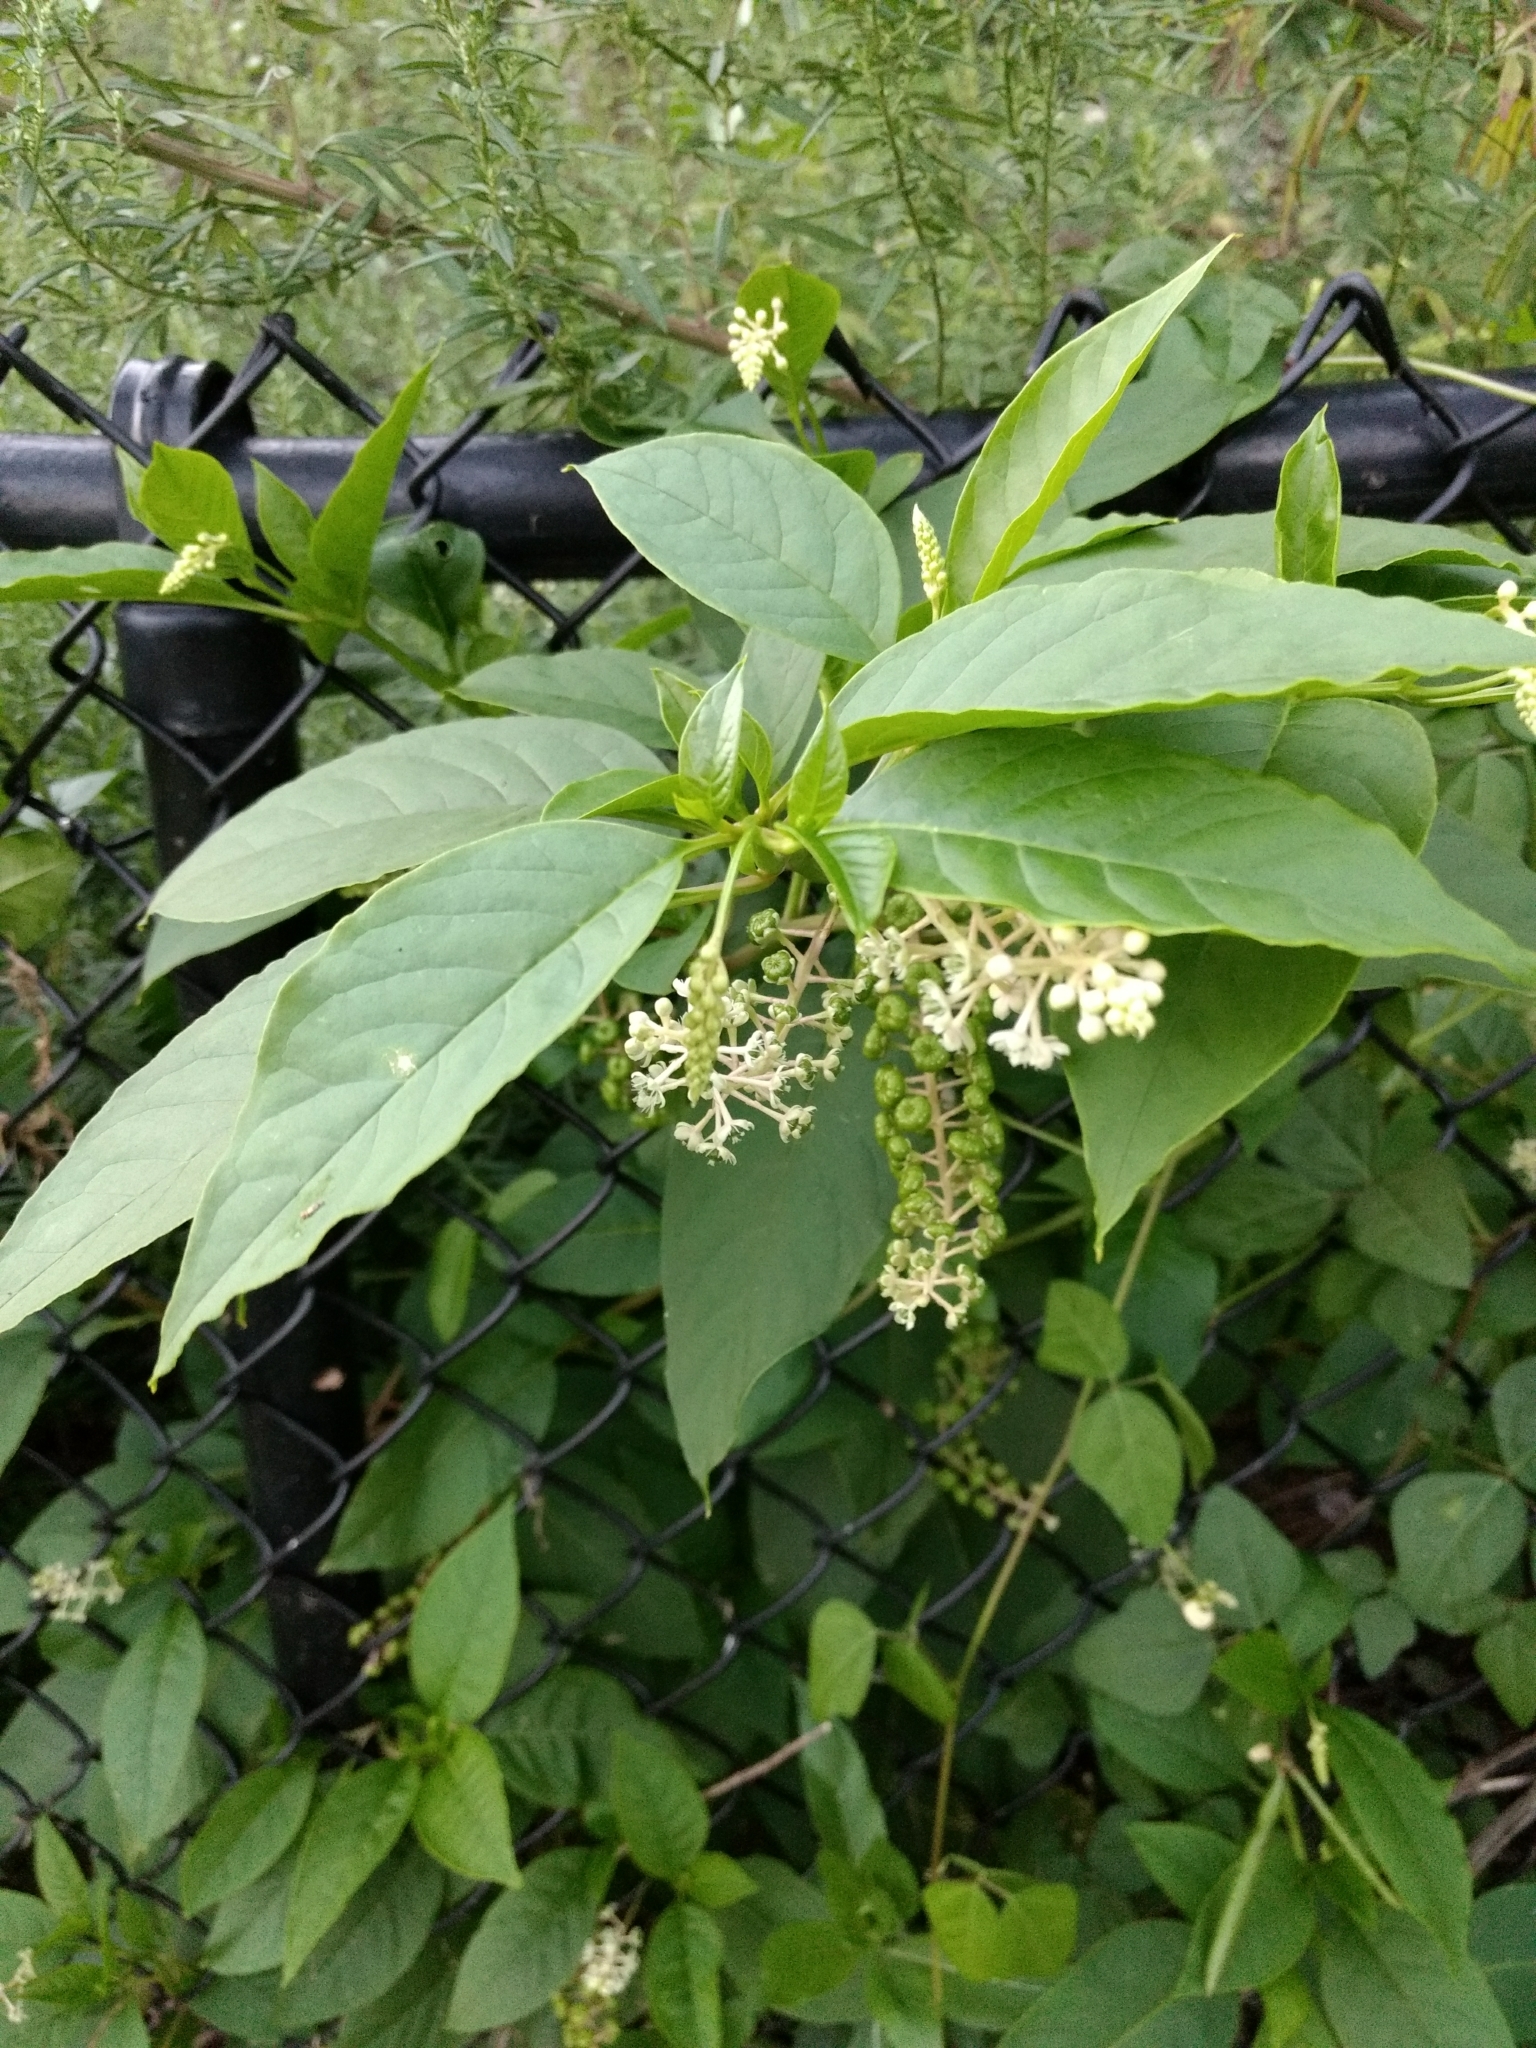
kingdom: Plantae
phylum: Tracheophyta
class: Magnoliopsida
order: Caryophyllales
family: Phytolaccaceae
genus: Phytolacca
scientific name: Phytolacca americana
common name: American pokeweed
